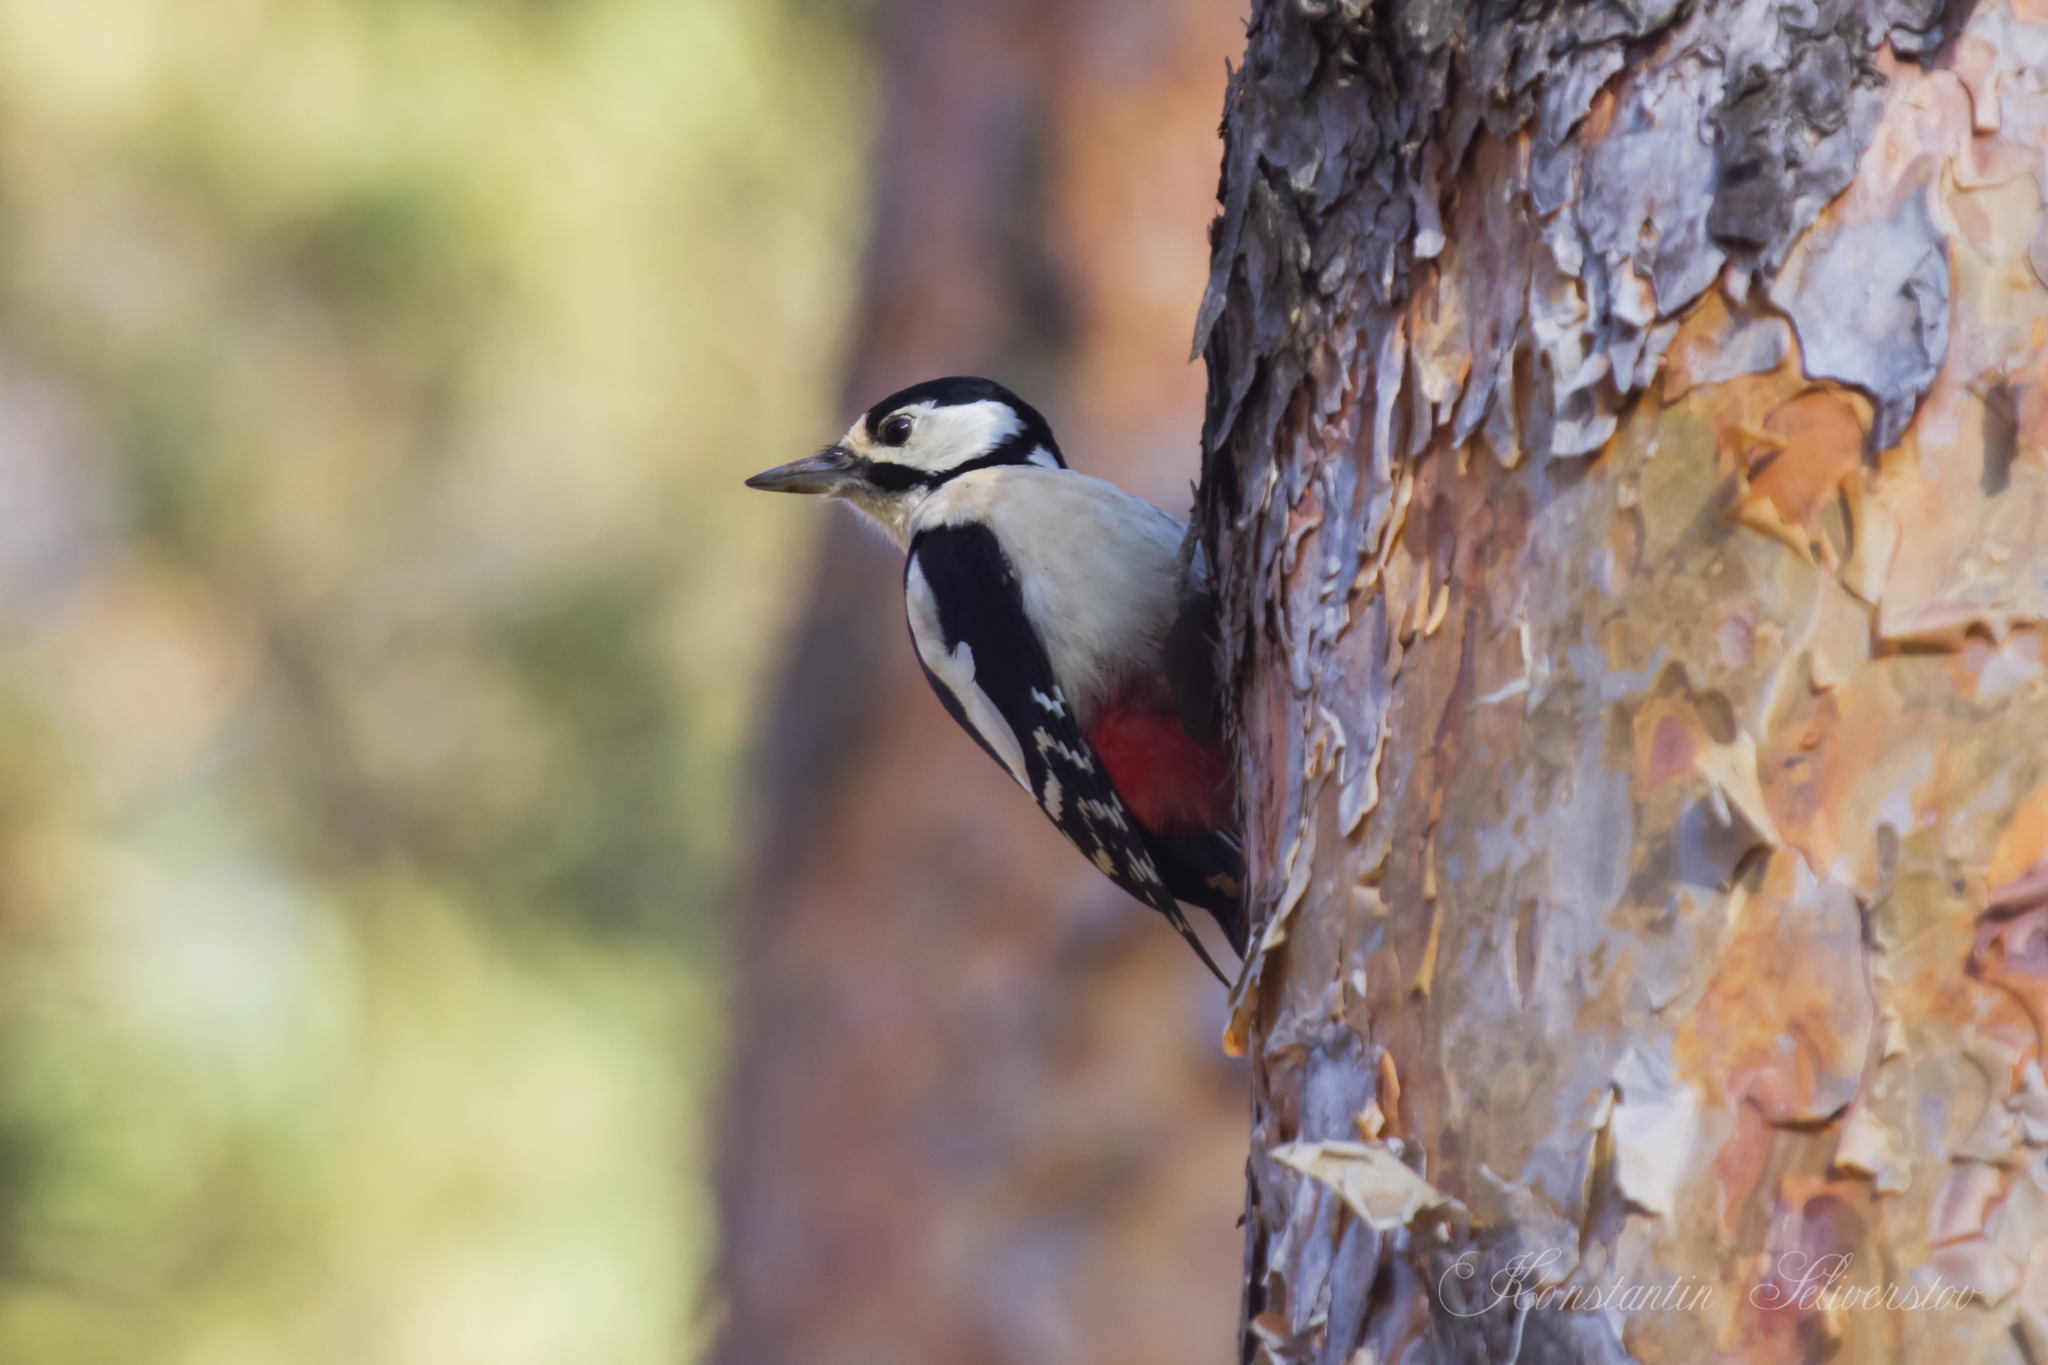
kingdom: Animalia
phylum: Chordata
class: Aves
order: Piciformes
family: Picidae
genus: Dendrocopos
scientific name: Dendrocopos major
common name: Great spotted woodpecker
